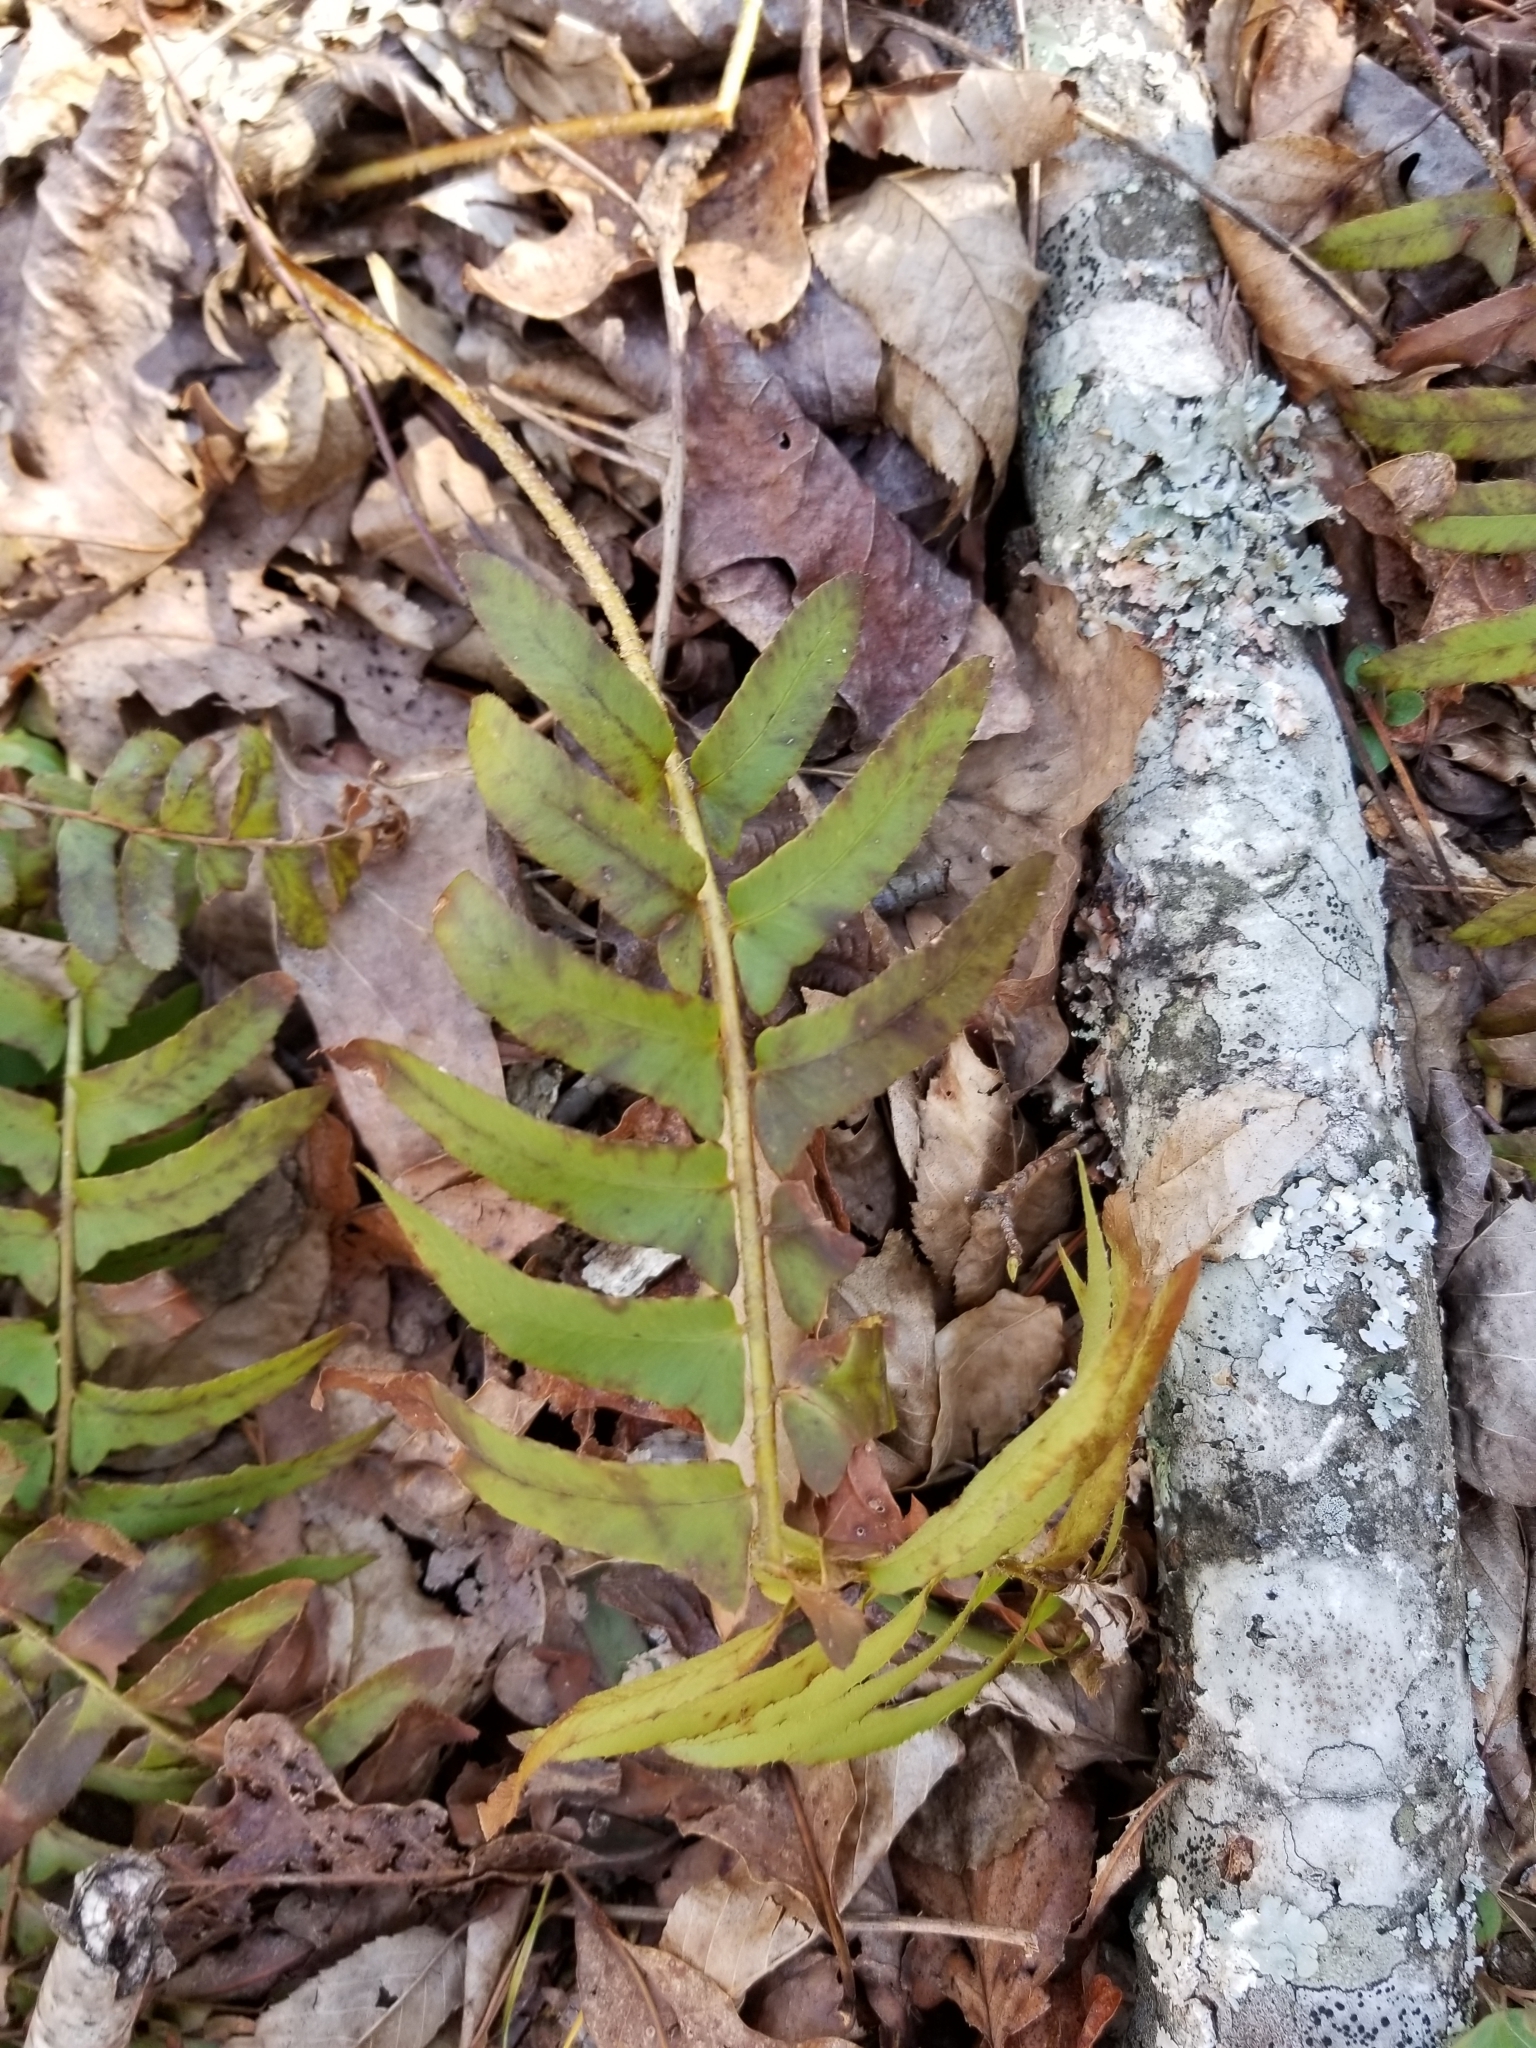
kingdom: Plantae
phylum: Tracheophyta
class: Polypodiopsida
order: Polypodiales
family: Dryopteridaceae
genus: Polystichum
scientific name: Polystichum acrostichoides
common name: Christmas fern
